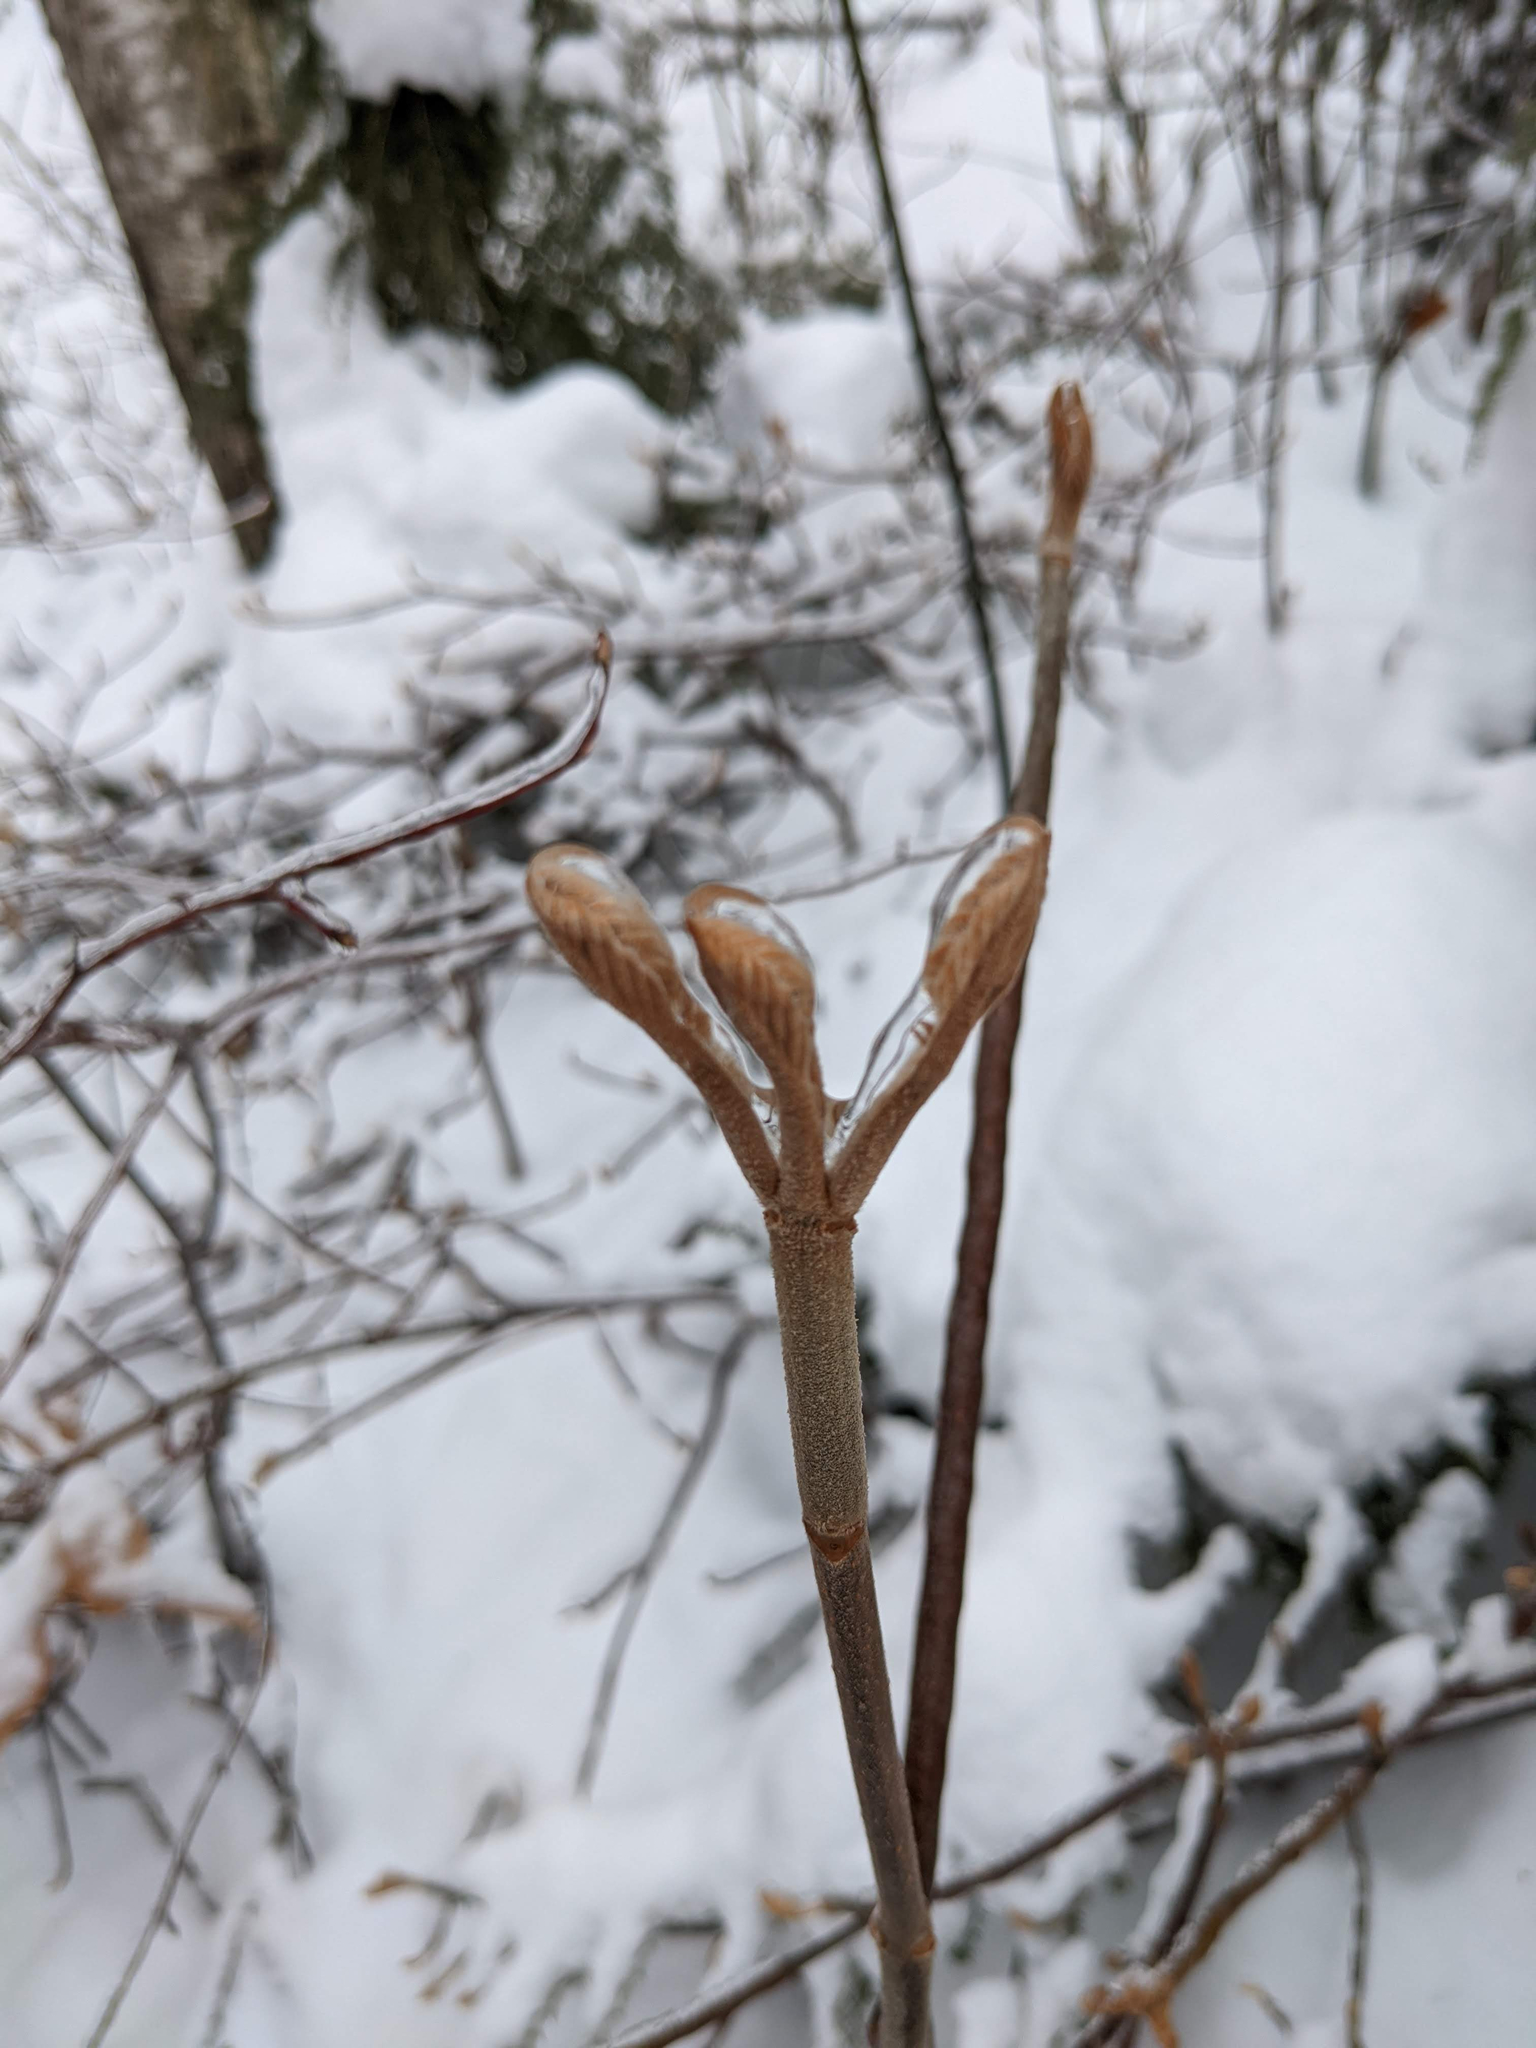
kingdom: Plantae
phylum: Tracheophyta
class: Magnoliopsida
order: Dipsacales
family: Viburnaceae
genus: Viburnum
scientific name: Viburnum lantanoides
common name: Hobblebush
